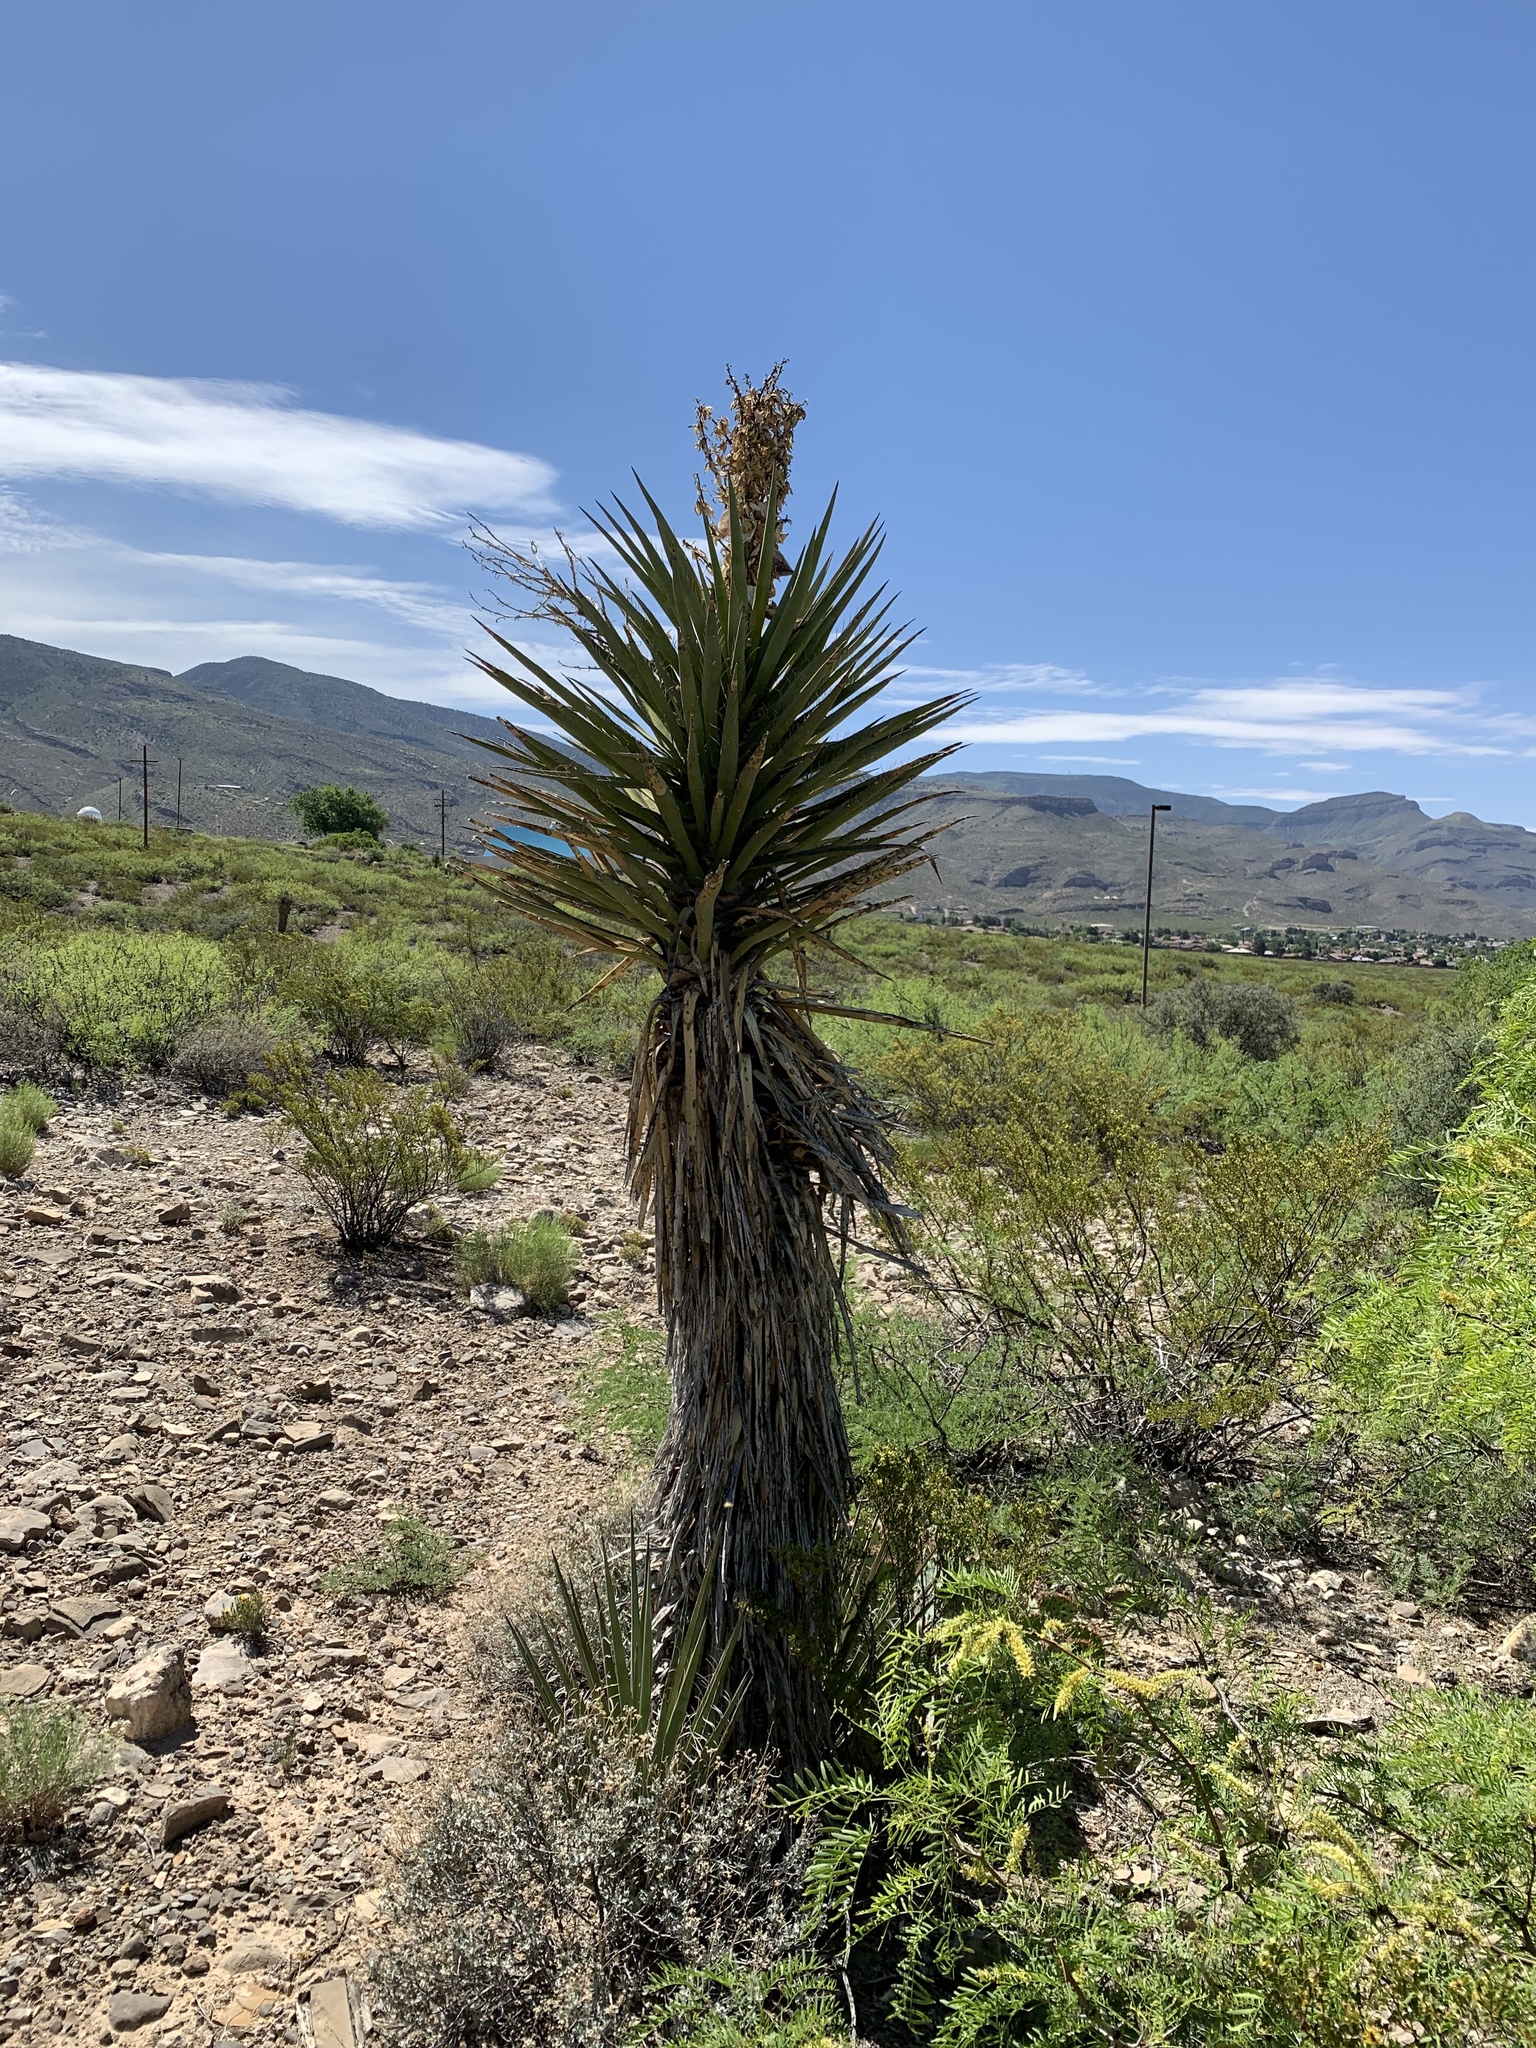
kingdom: Plantae
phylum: Tracheophyta
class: Liliopsida
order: Asparagales
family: Asparagaceae
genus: Yucca
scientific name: Yucca treculiana
